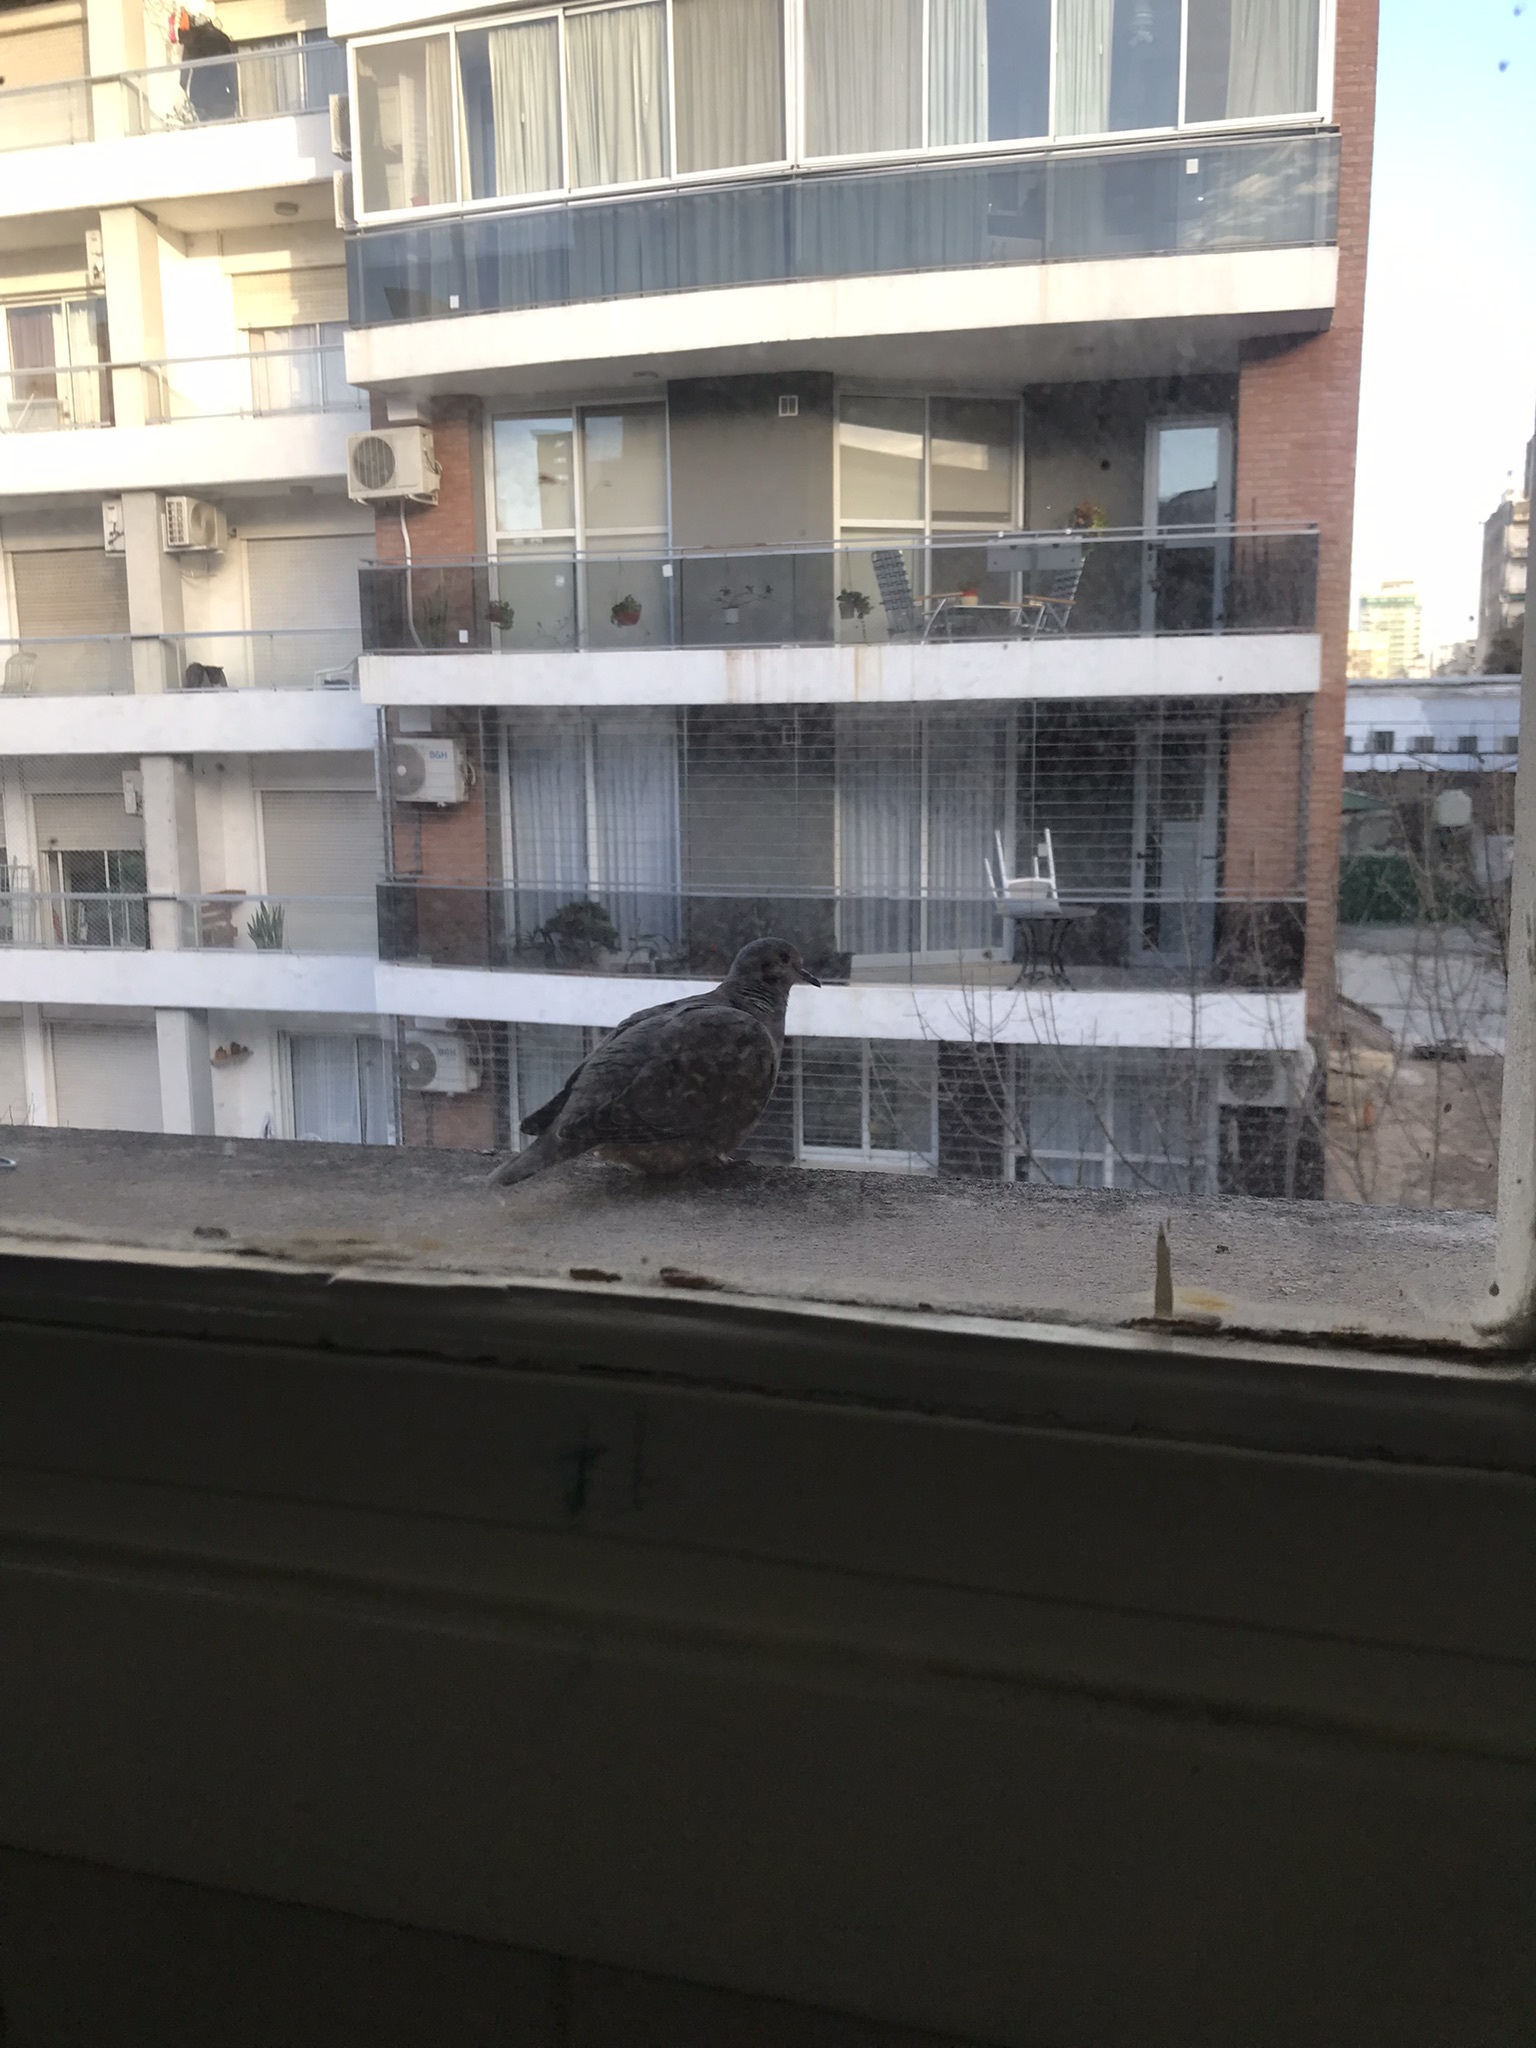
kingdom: Animalia
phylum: Chordata
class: Aves
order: Columbiformes
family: Columbidae
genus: Zenaida
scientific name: Zenaida auriculata
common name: Eared dove
